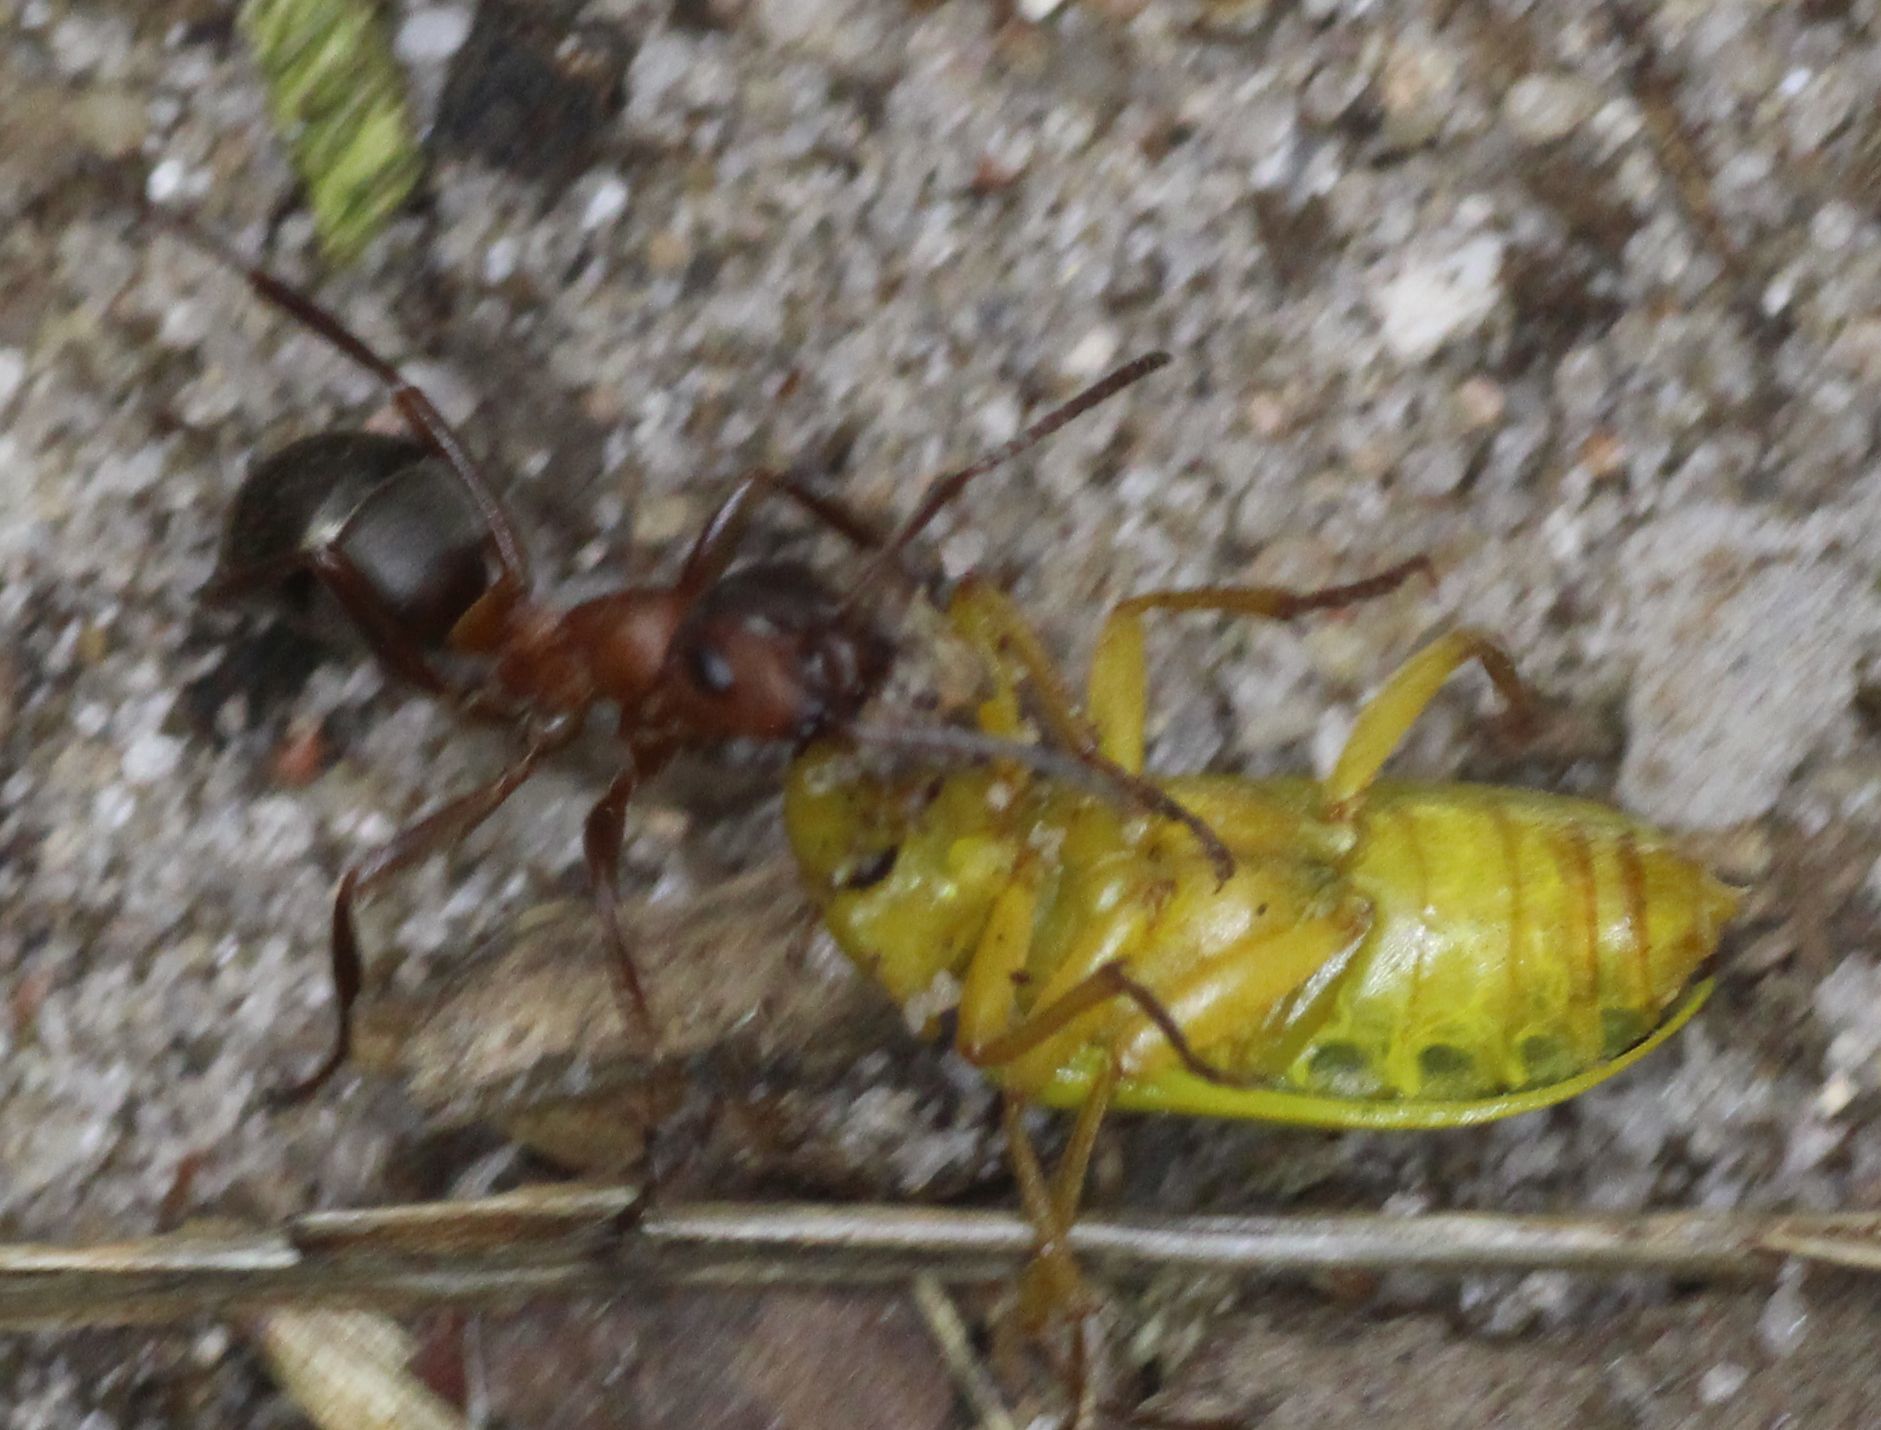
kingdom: Animalia
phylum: Arthropoda
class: Insecta
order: Coleoptera
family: Tenebrionidae
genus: Cteniopus
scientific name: Cteniopus sulphureus
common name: Sulphur beetle
